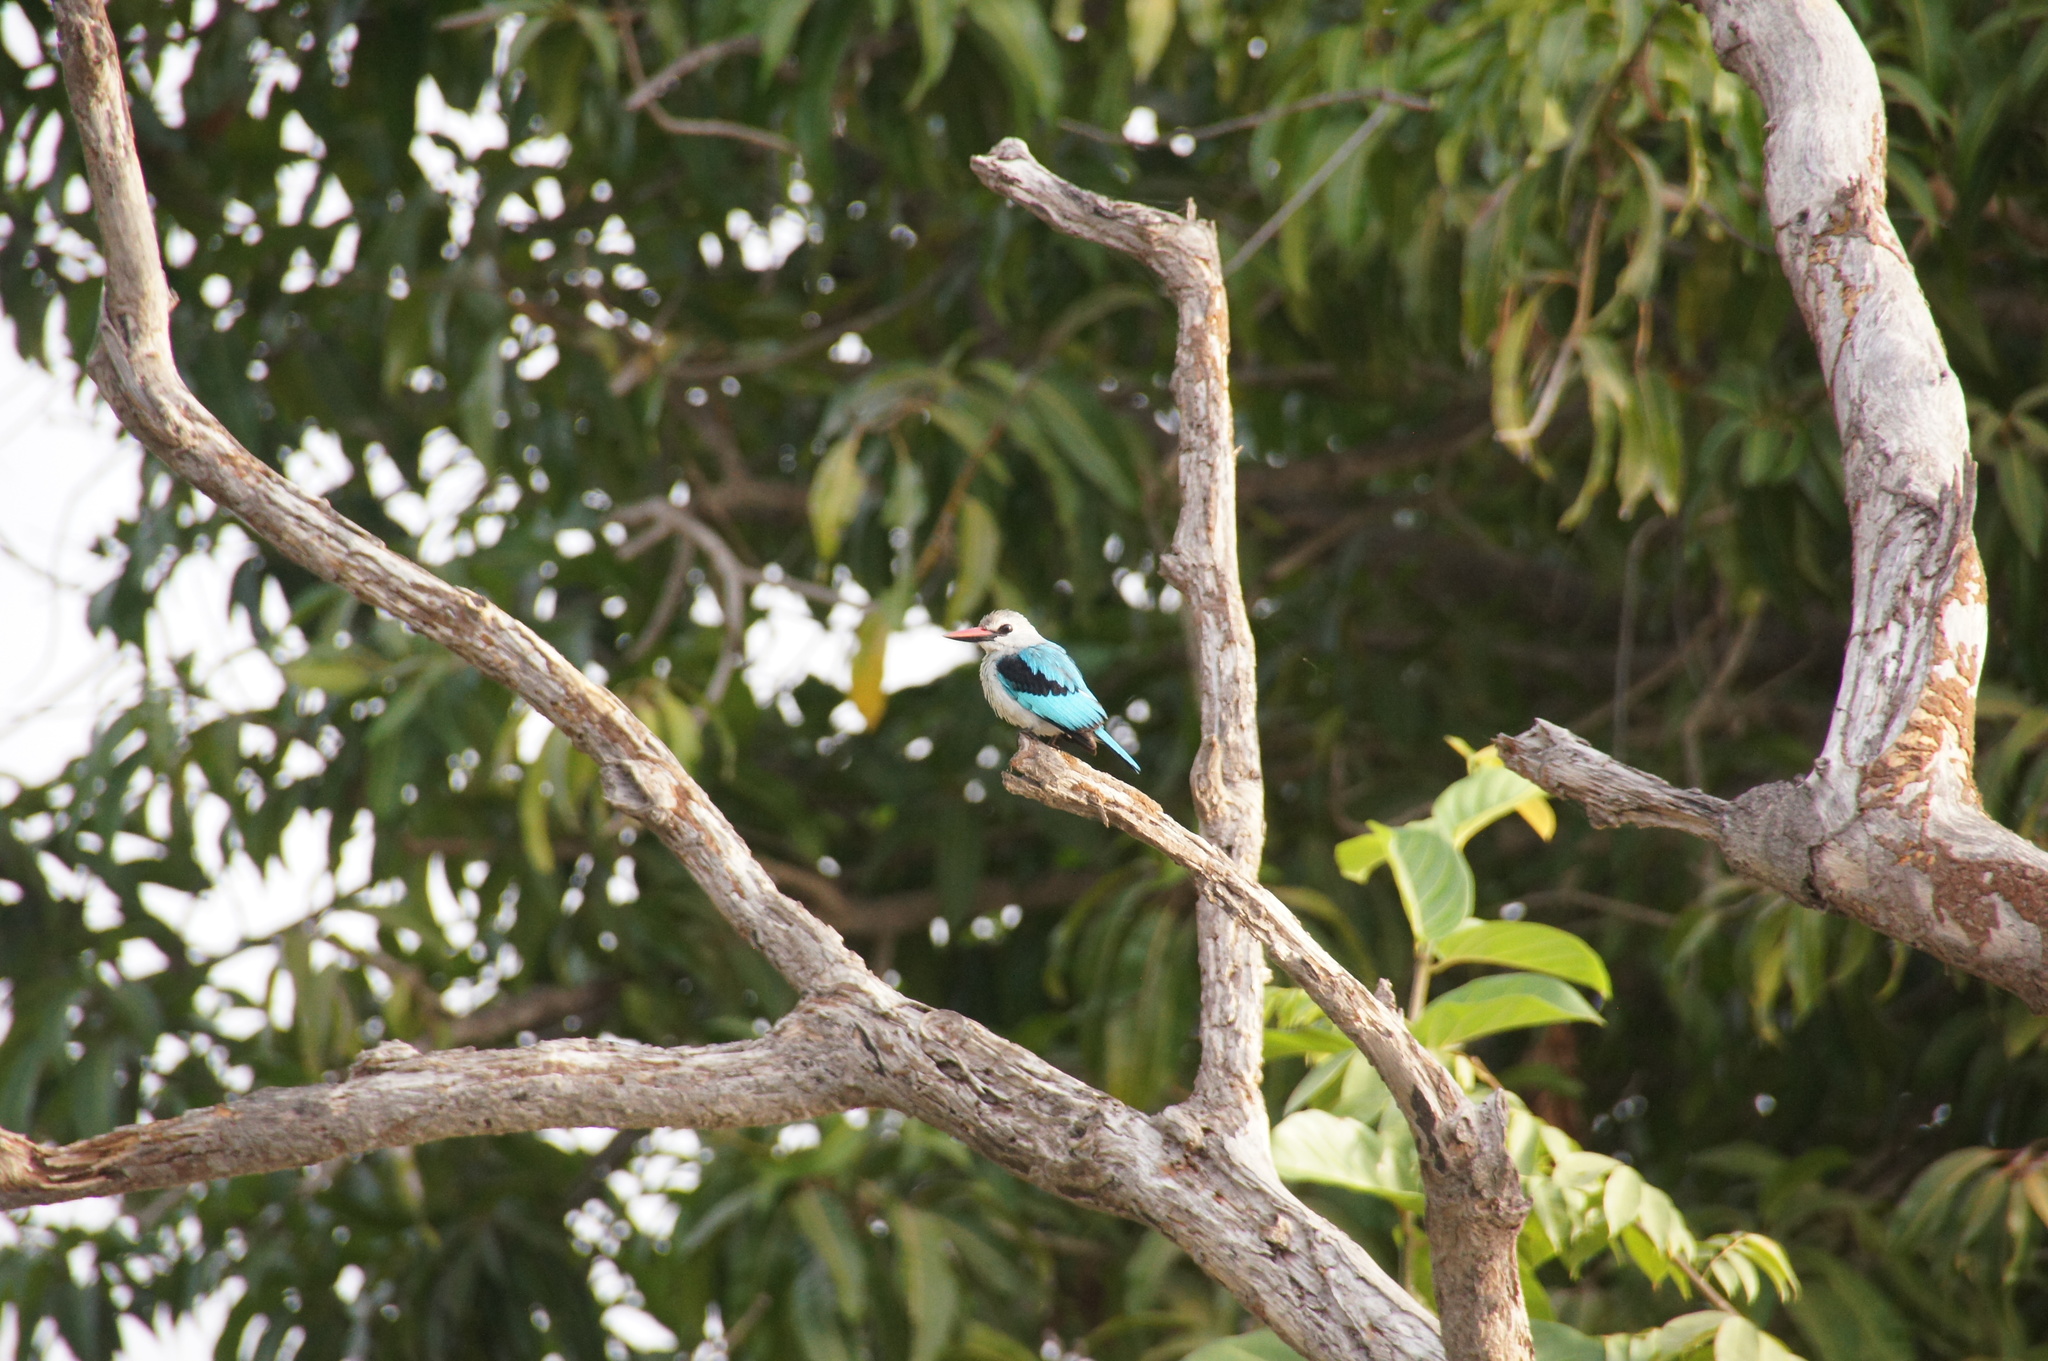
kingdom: Animalia
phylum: Chordata
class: Aves
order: Coraciiformes
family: Alcedinidae
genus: Halcyon
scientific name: Halcyon senegalensis
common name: Woodland kingfisher
